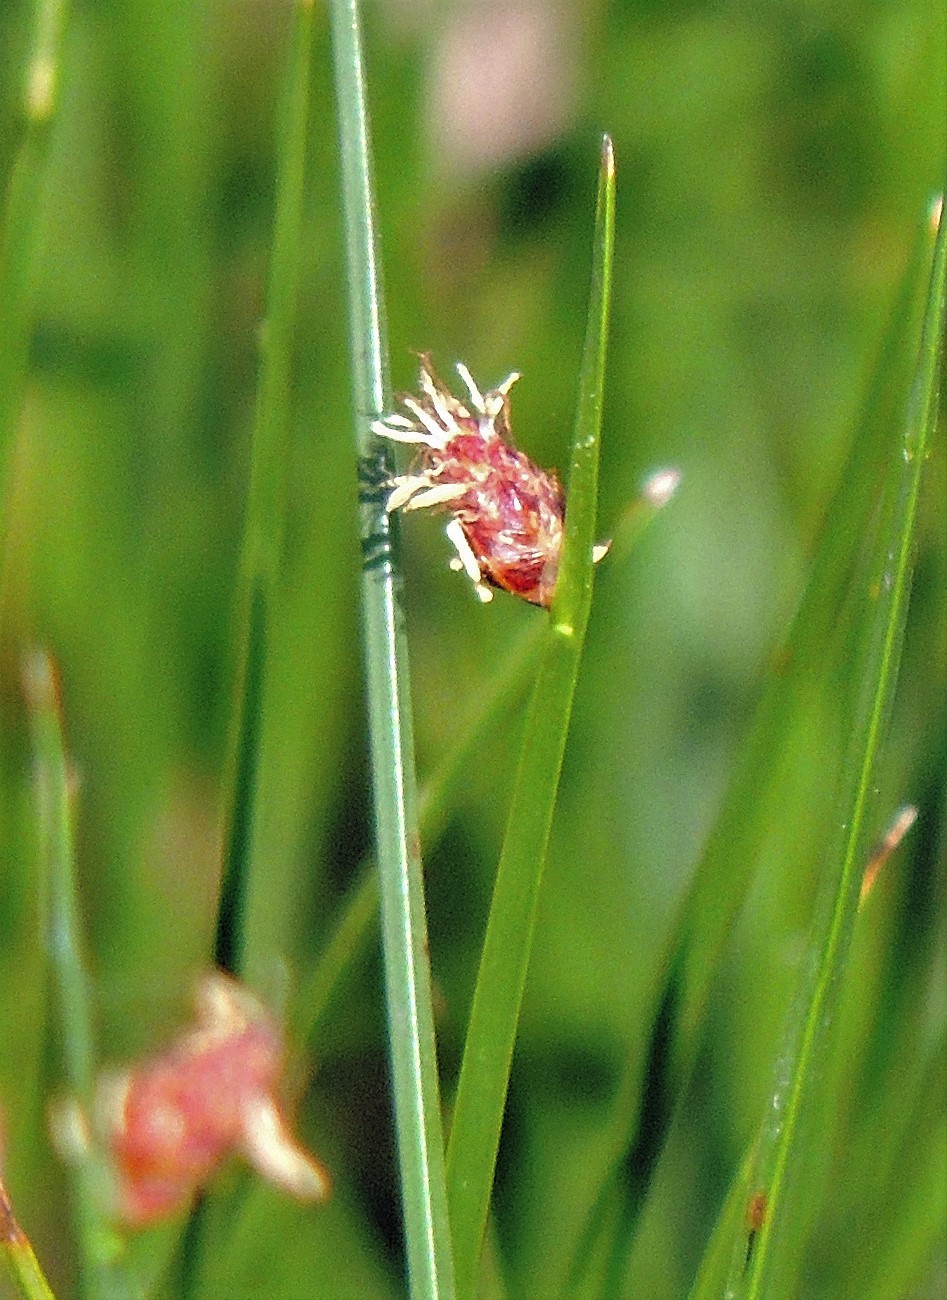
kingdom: Plantae
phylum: Tracheophyta
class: Liliopsida
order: Poales
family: Cyperaceae
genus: Schoenoplectus
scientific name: Schoenoplectus americanus
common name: American three-square bulrush
